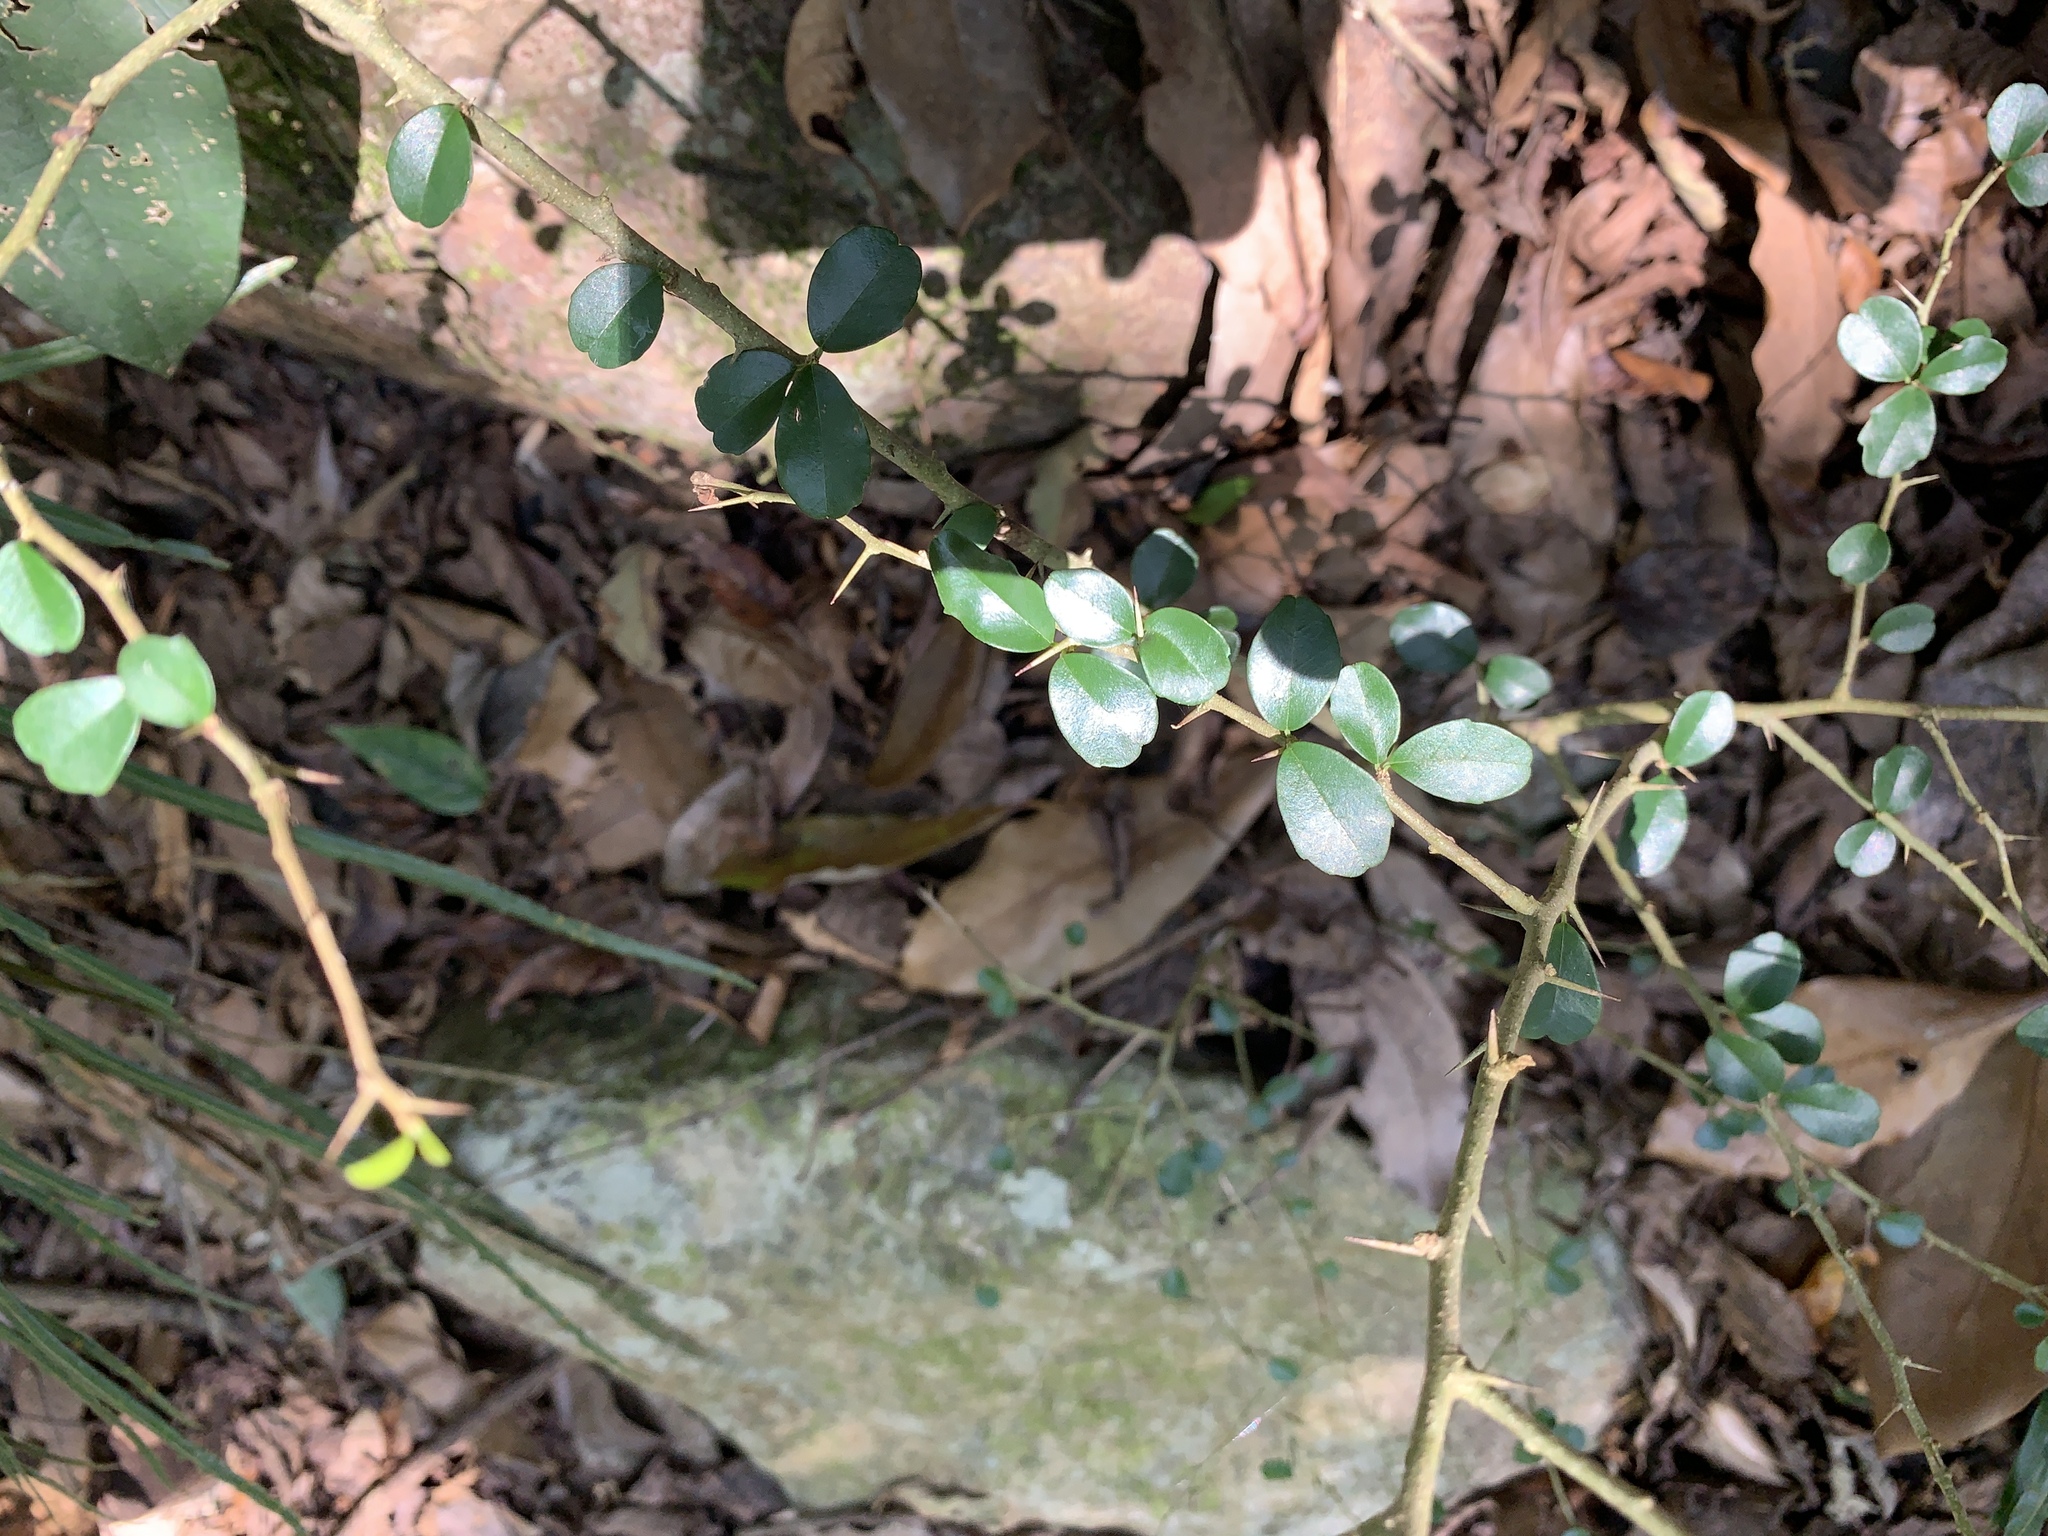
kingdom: Plantae
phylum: Tracheophyta
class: Magnoliopsida
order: Rosales
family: Moraceae
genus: Maclura
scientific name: Maclura cochinchinensis
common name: Cockspurthorn
